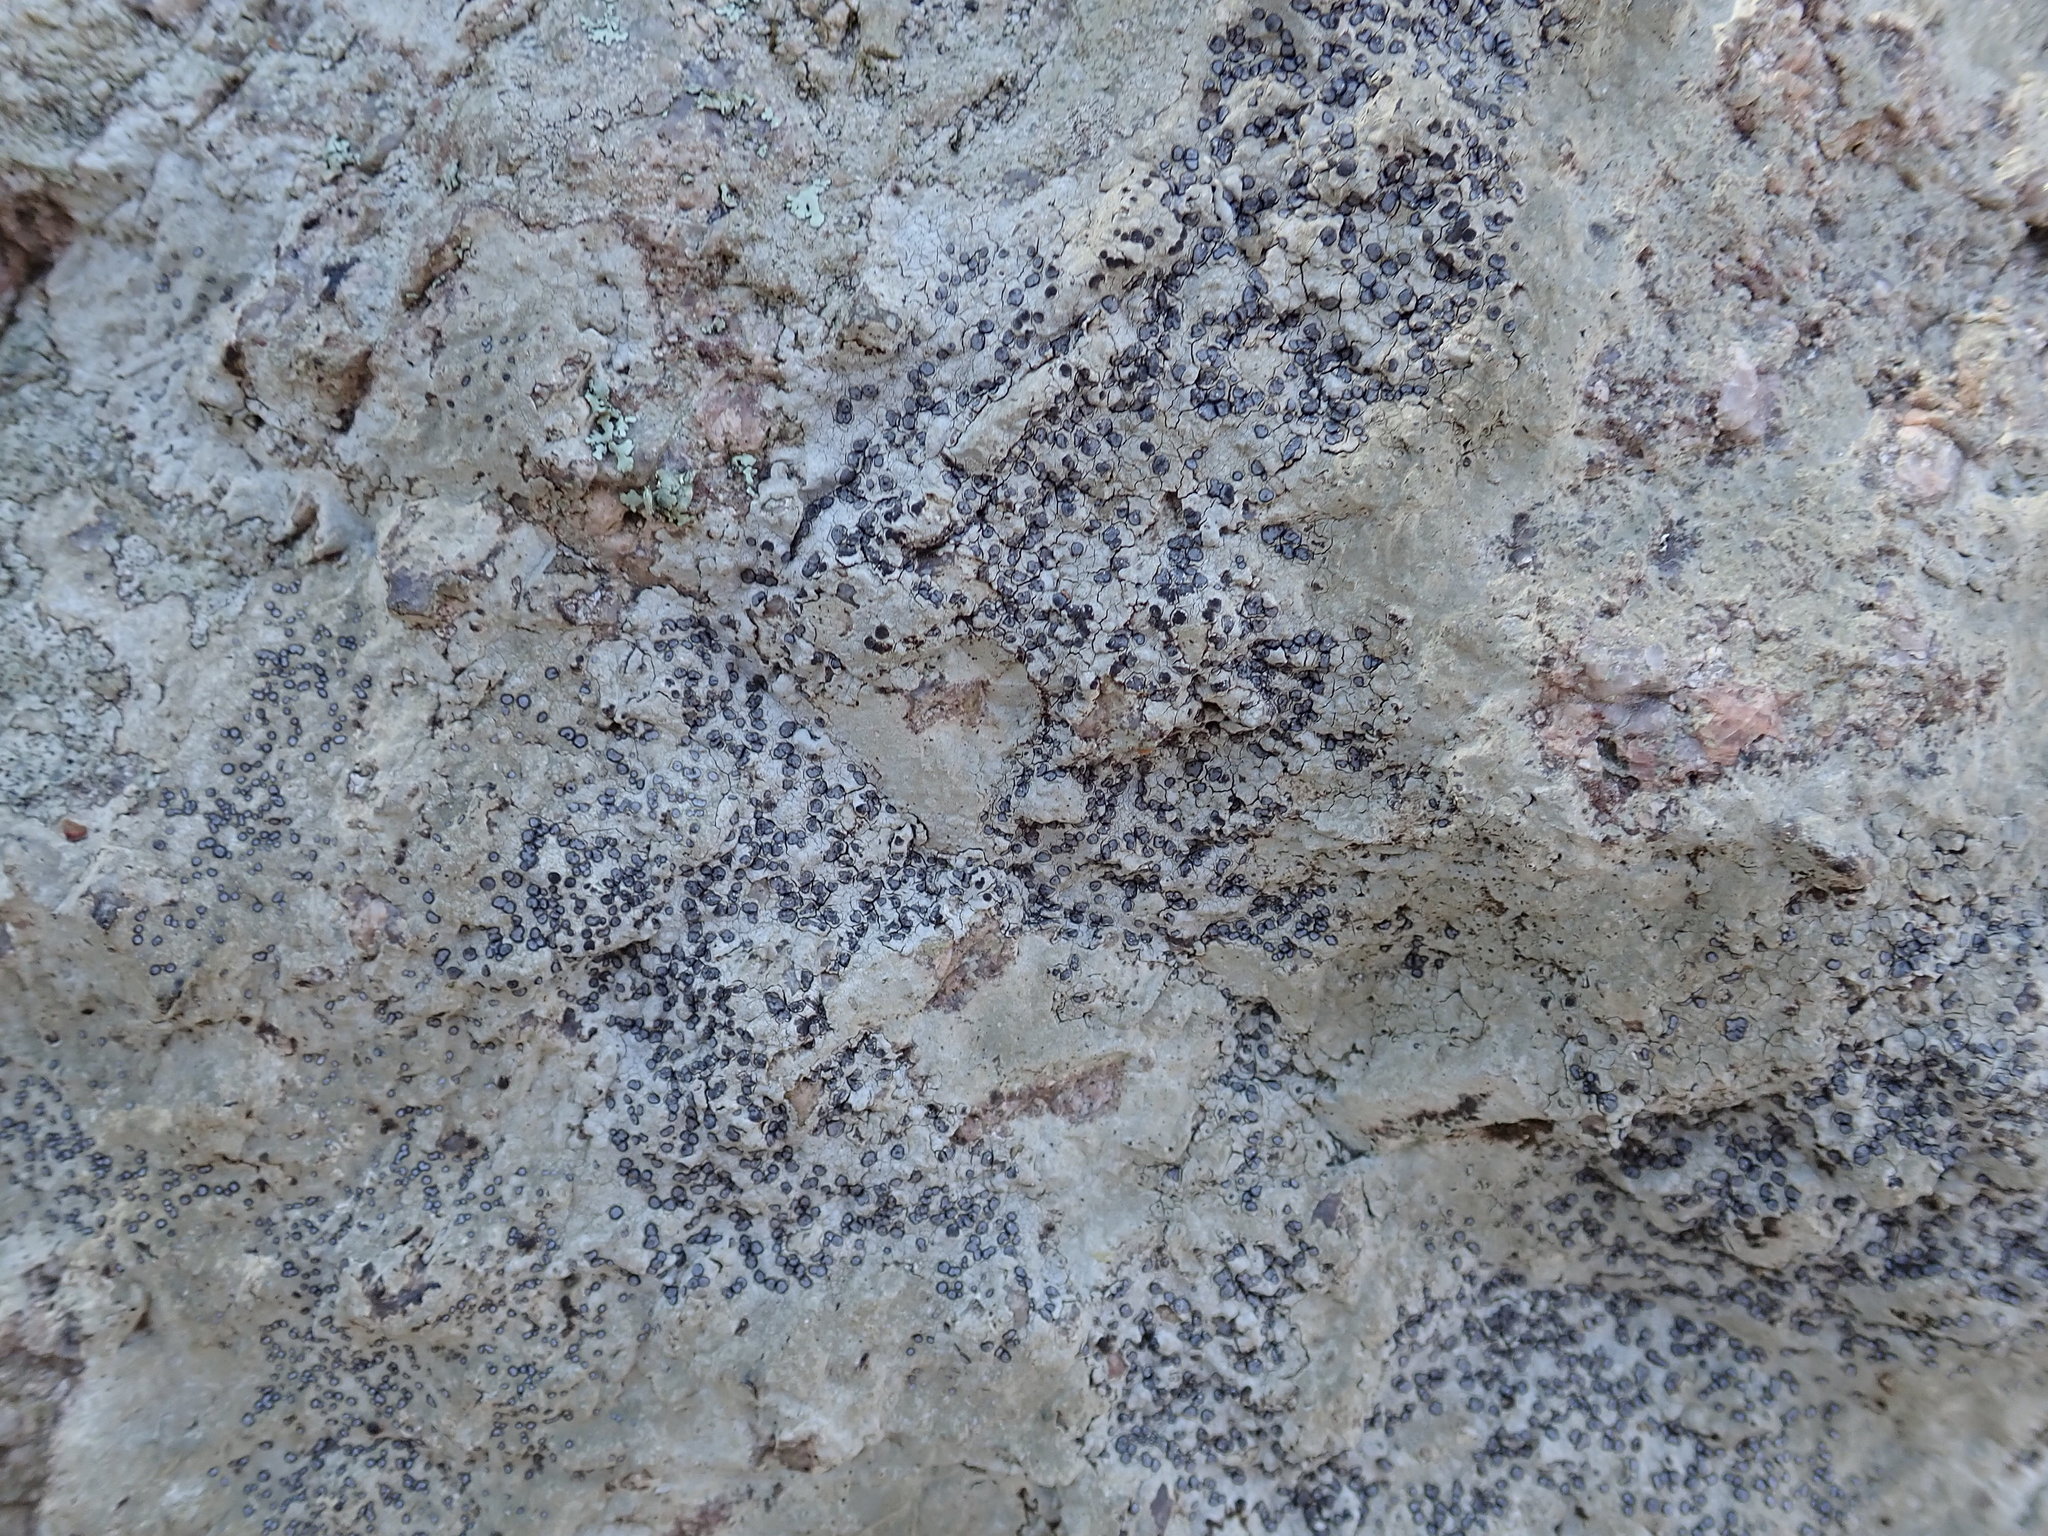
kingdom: Fungi
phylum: Ascomycota
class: Lecanoromycetes
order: Lecideales
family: Lecideaceae
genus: Porpidia
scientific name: Porpidia albocaerulescens
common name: Smokey-eyed boulder lichen
